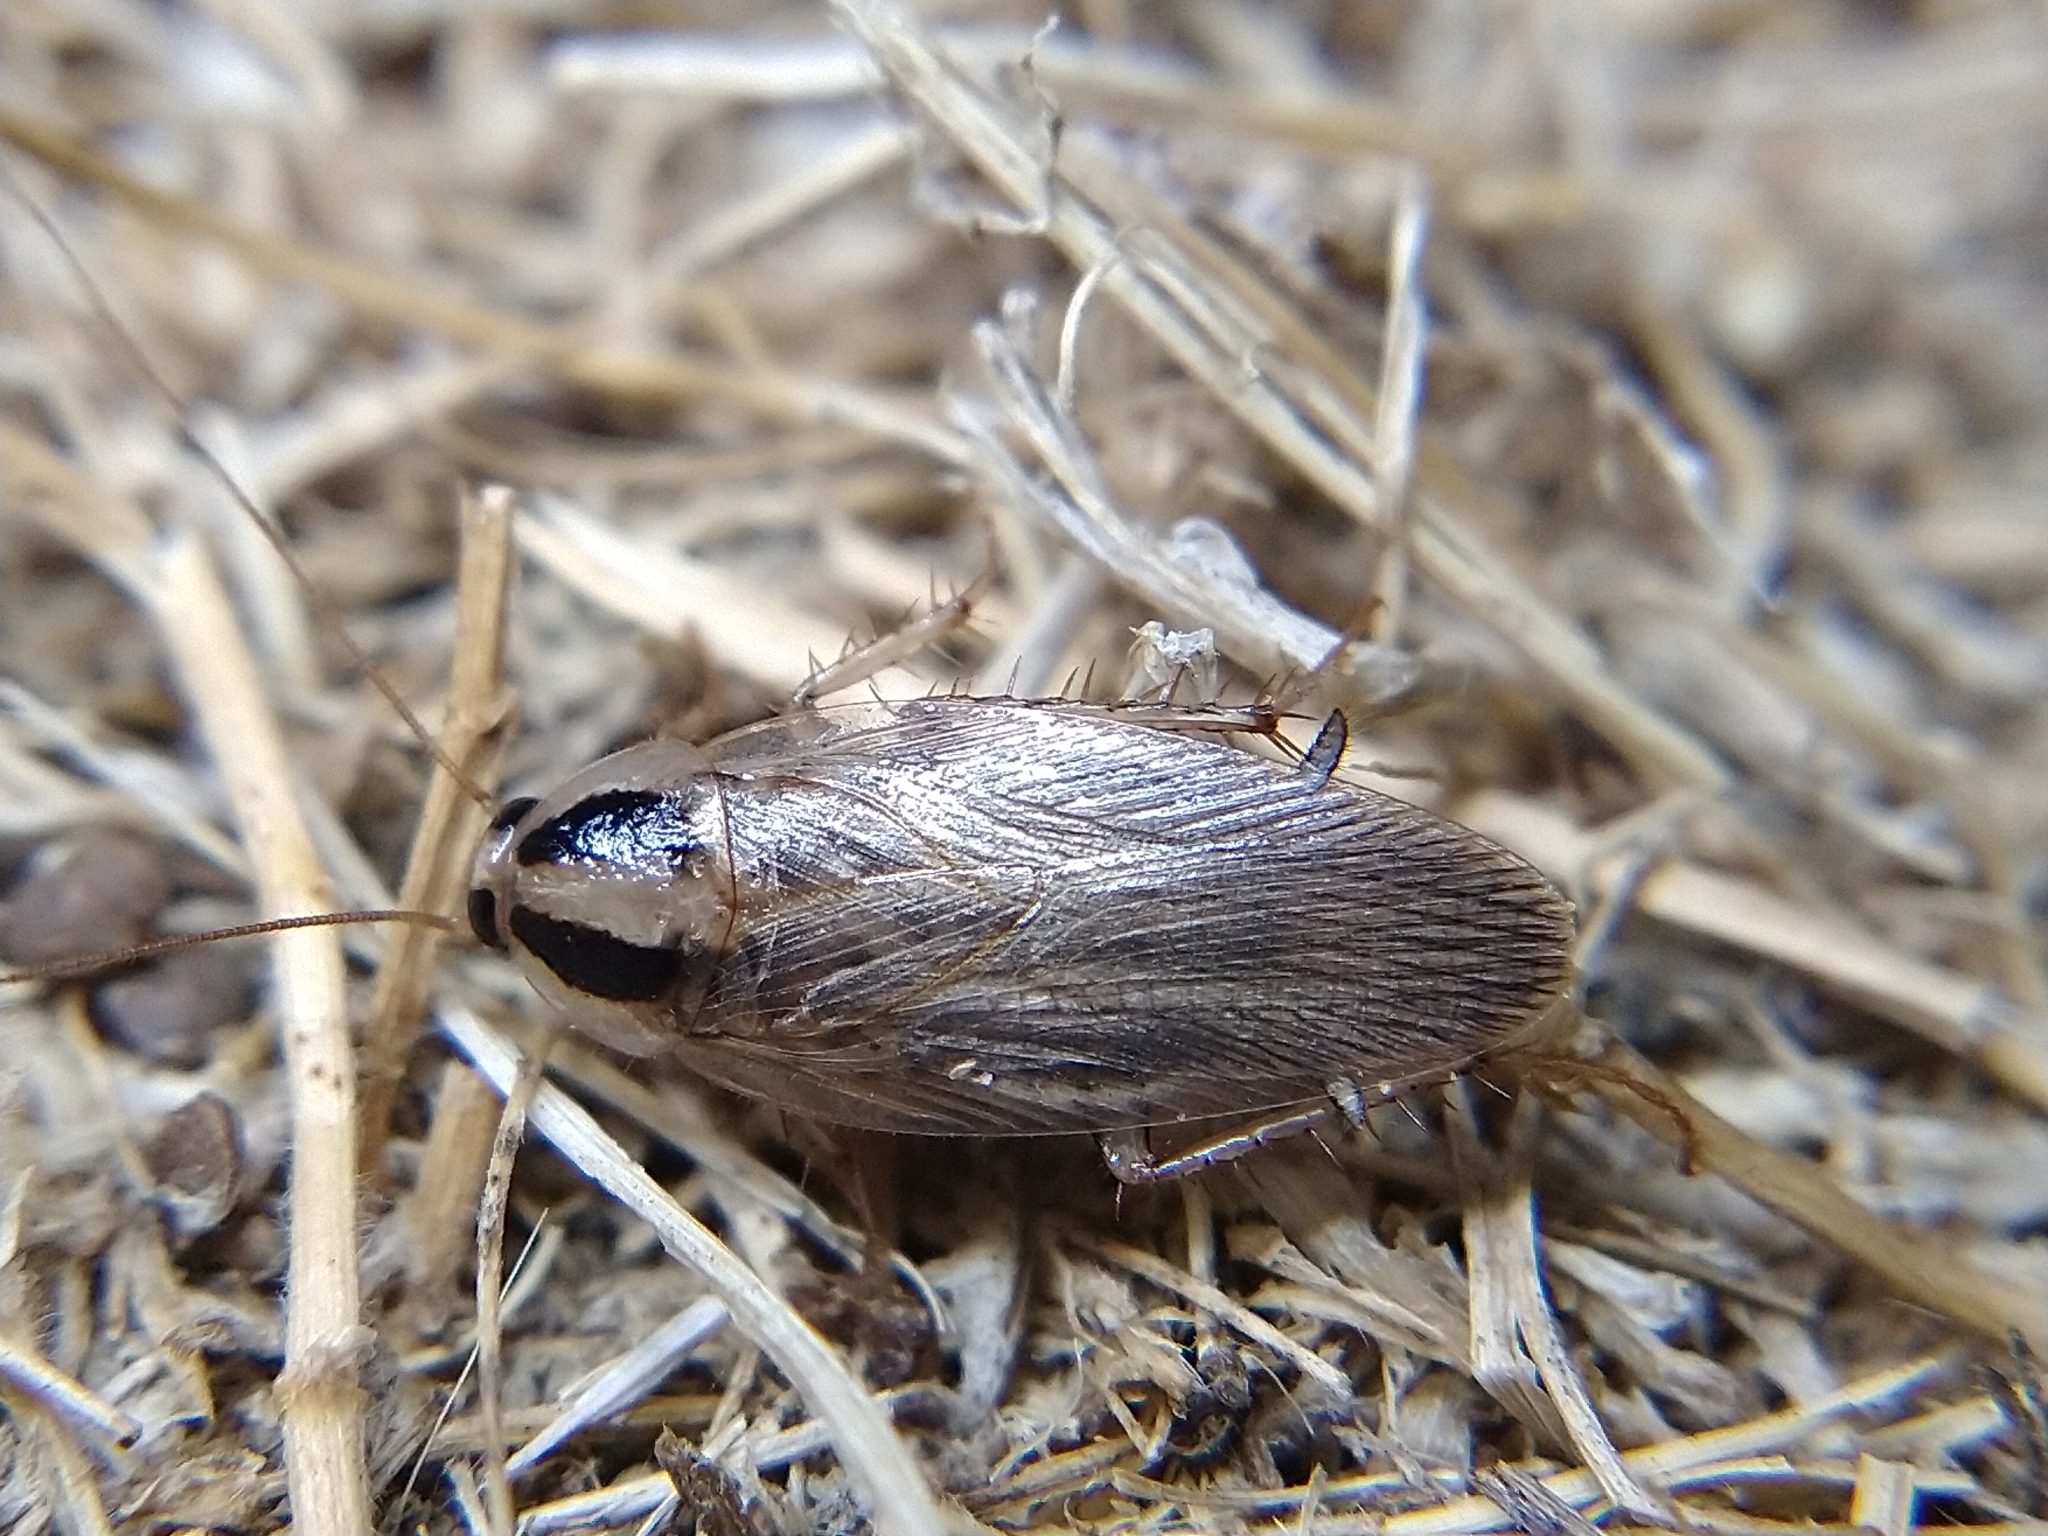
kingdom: Animalia
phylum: Arthropoda
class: Insecta
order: Blattodea
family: Ectobiidae
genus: Blattella
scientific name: Blattella vaga
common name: Field cockroach
